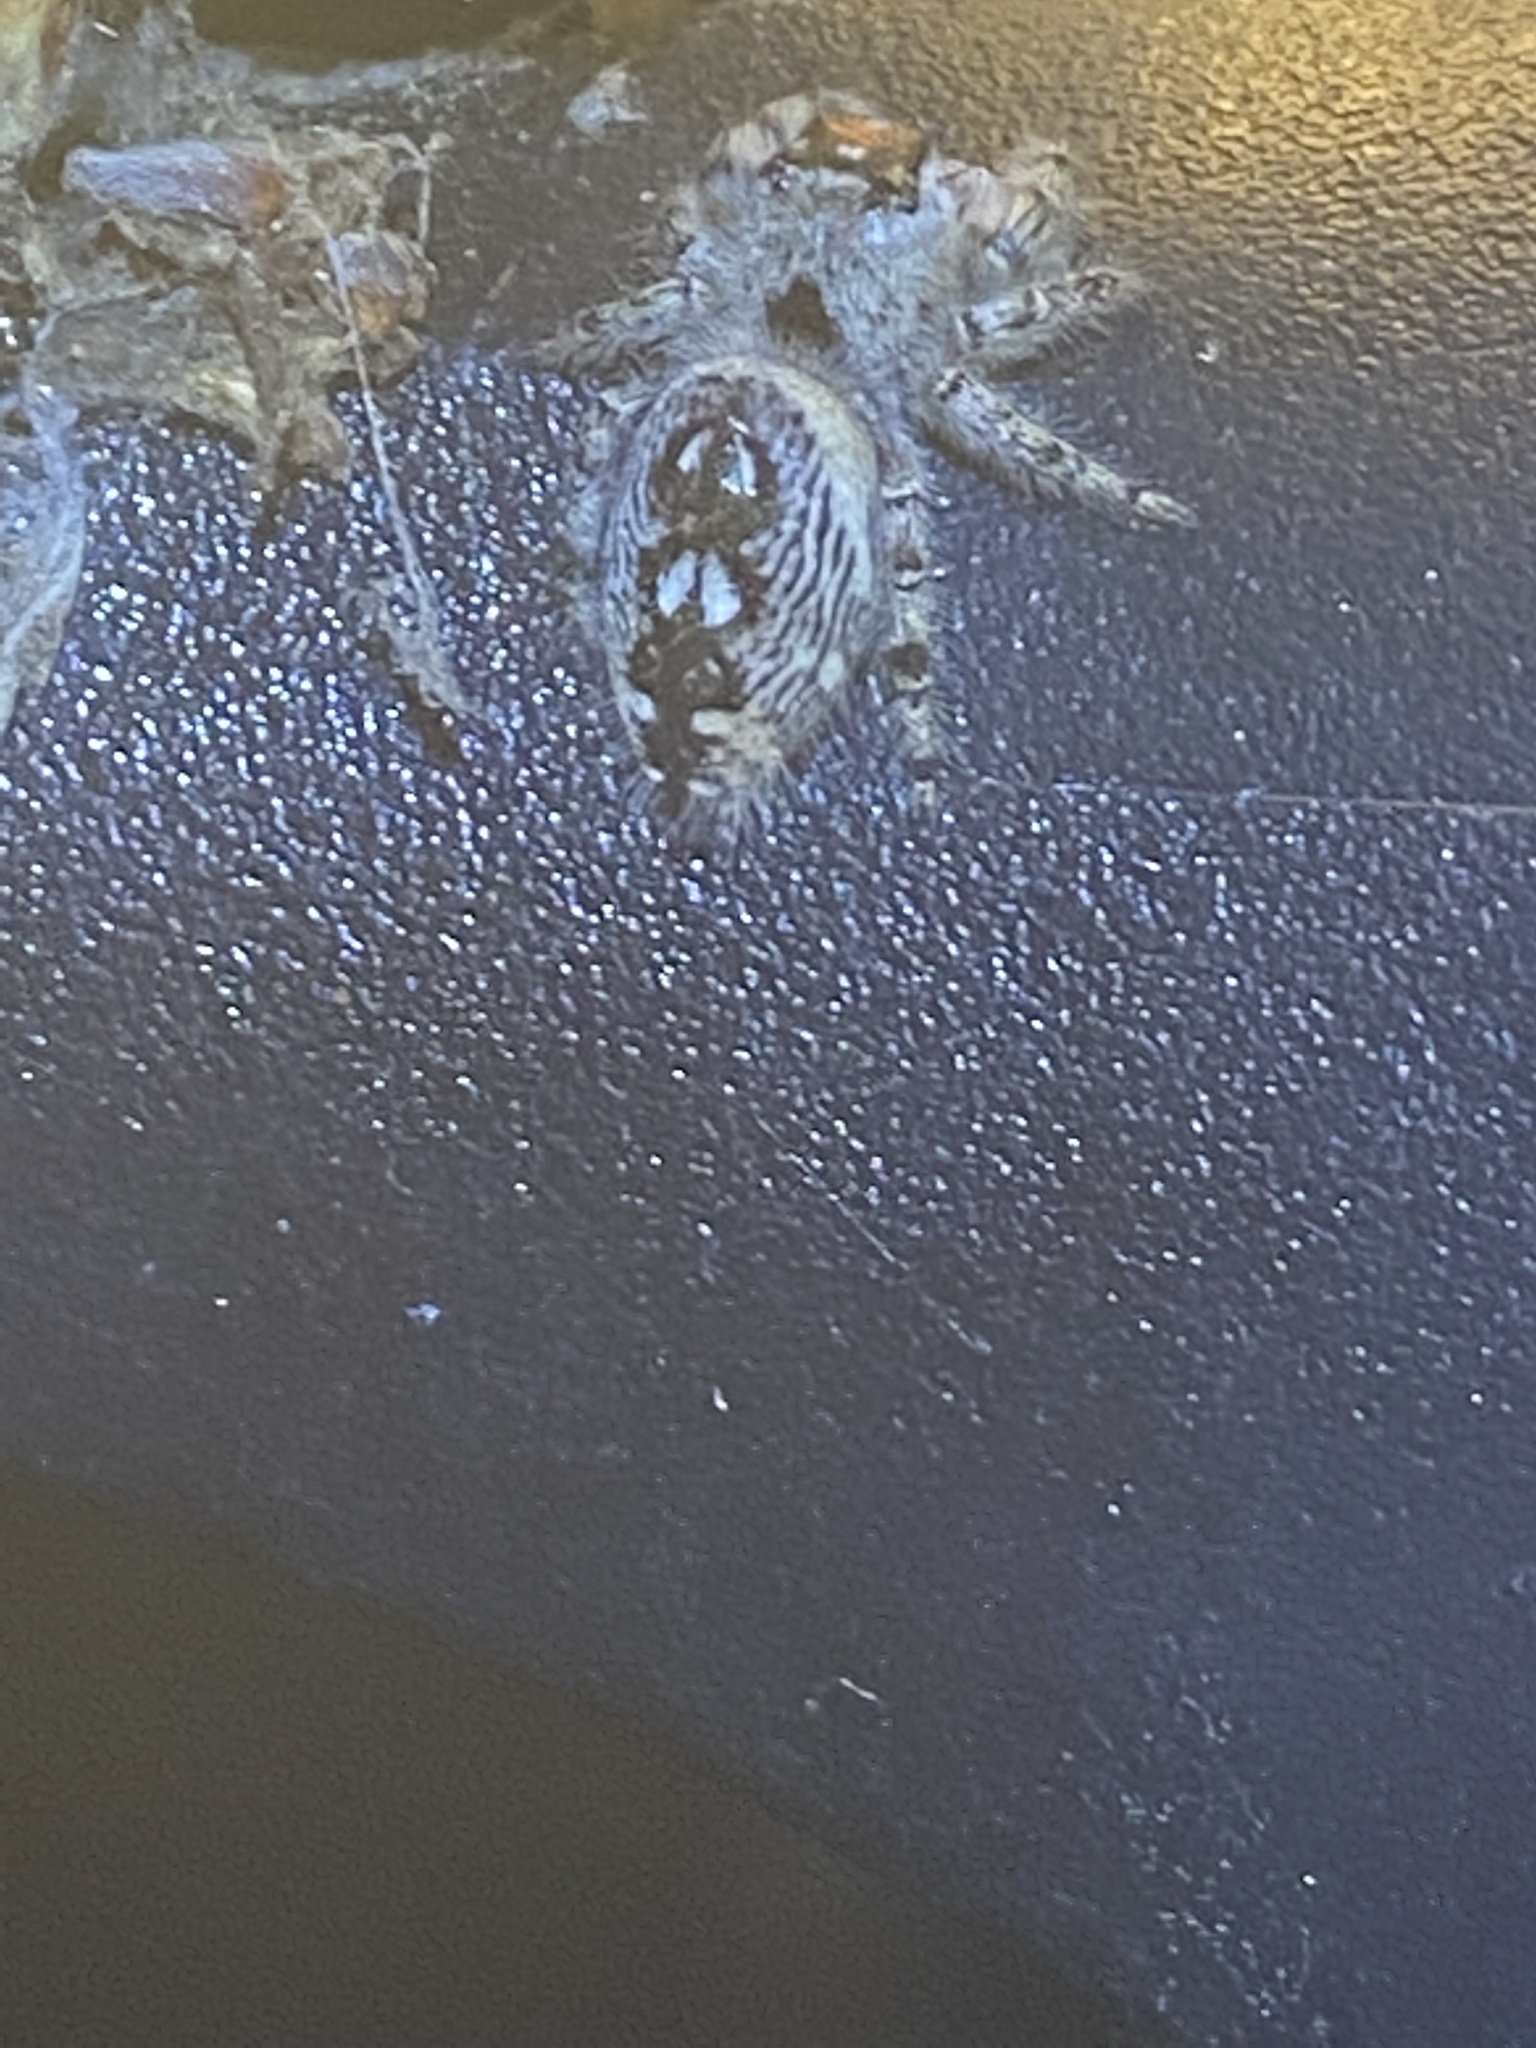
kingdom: Animalia
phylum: Arthropoda
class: Arachnida
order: Araneae
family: Salticidae
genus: Phidippus
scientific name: Phidippus otiosus
